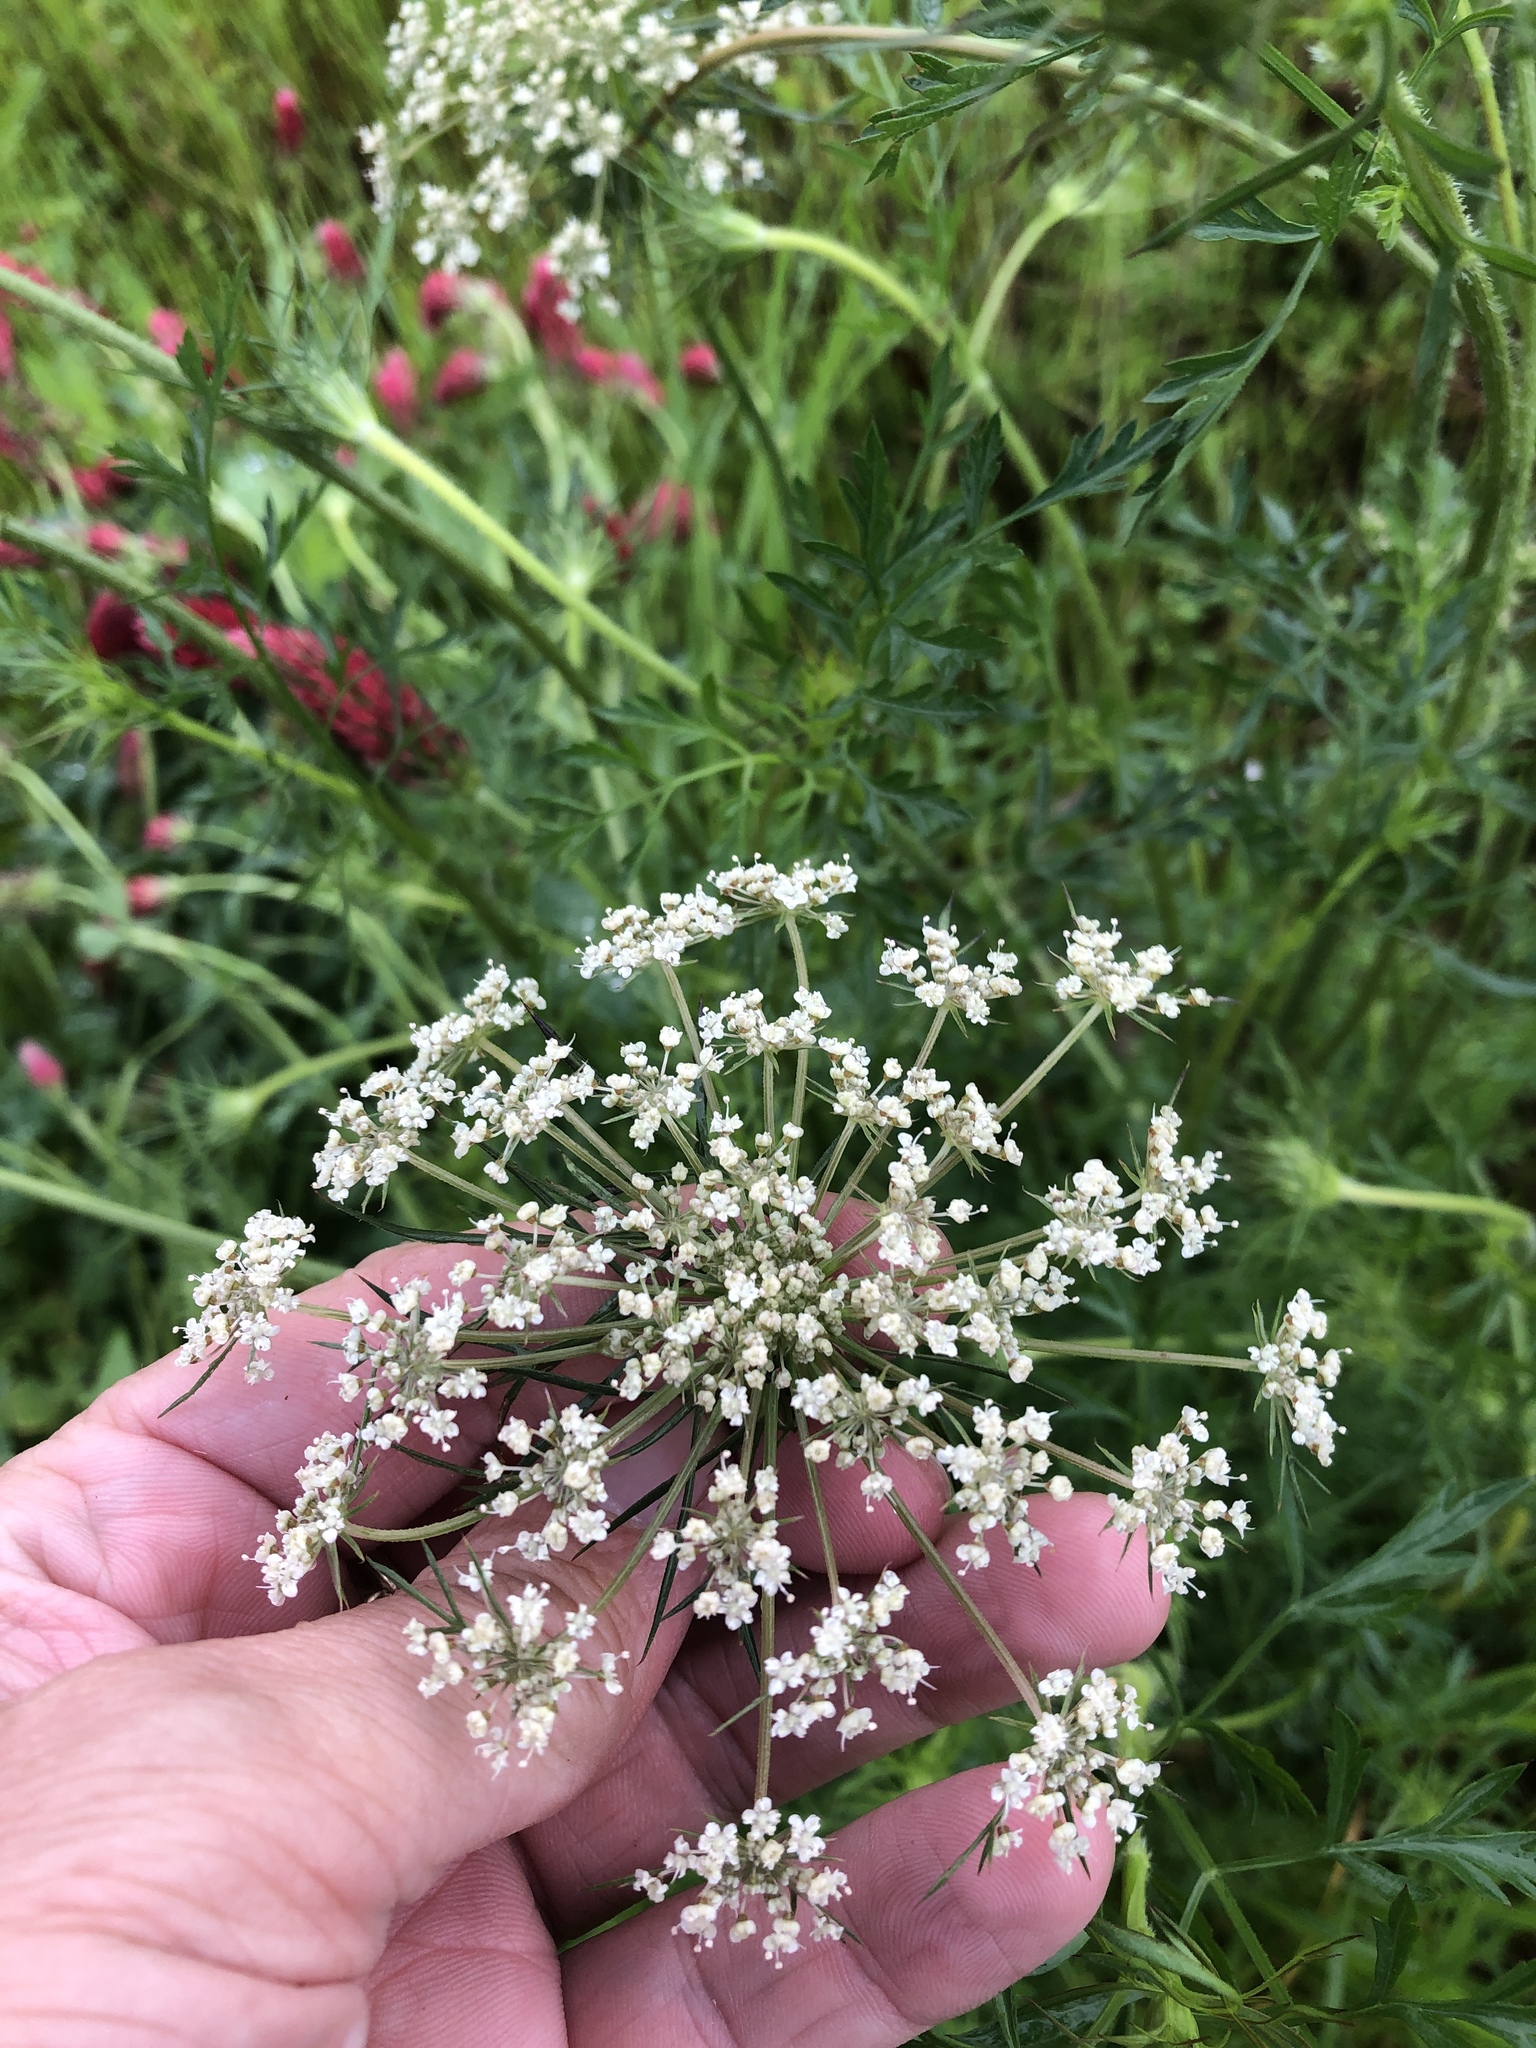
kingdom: Plantae
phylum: Tracheophyta
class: Magnoliopsida
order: Apiales
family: Apiaceae
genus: Daucus
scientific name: Daucus carota
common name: Wild carrot
